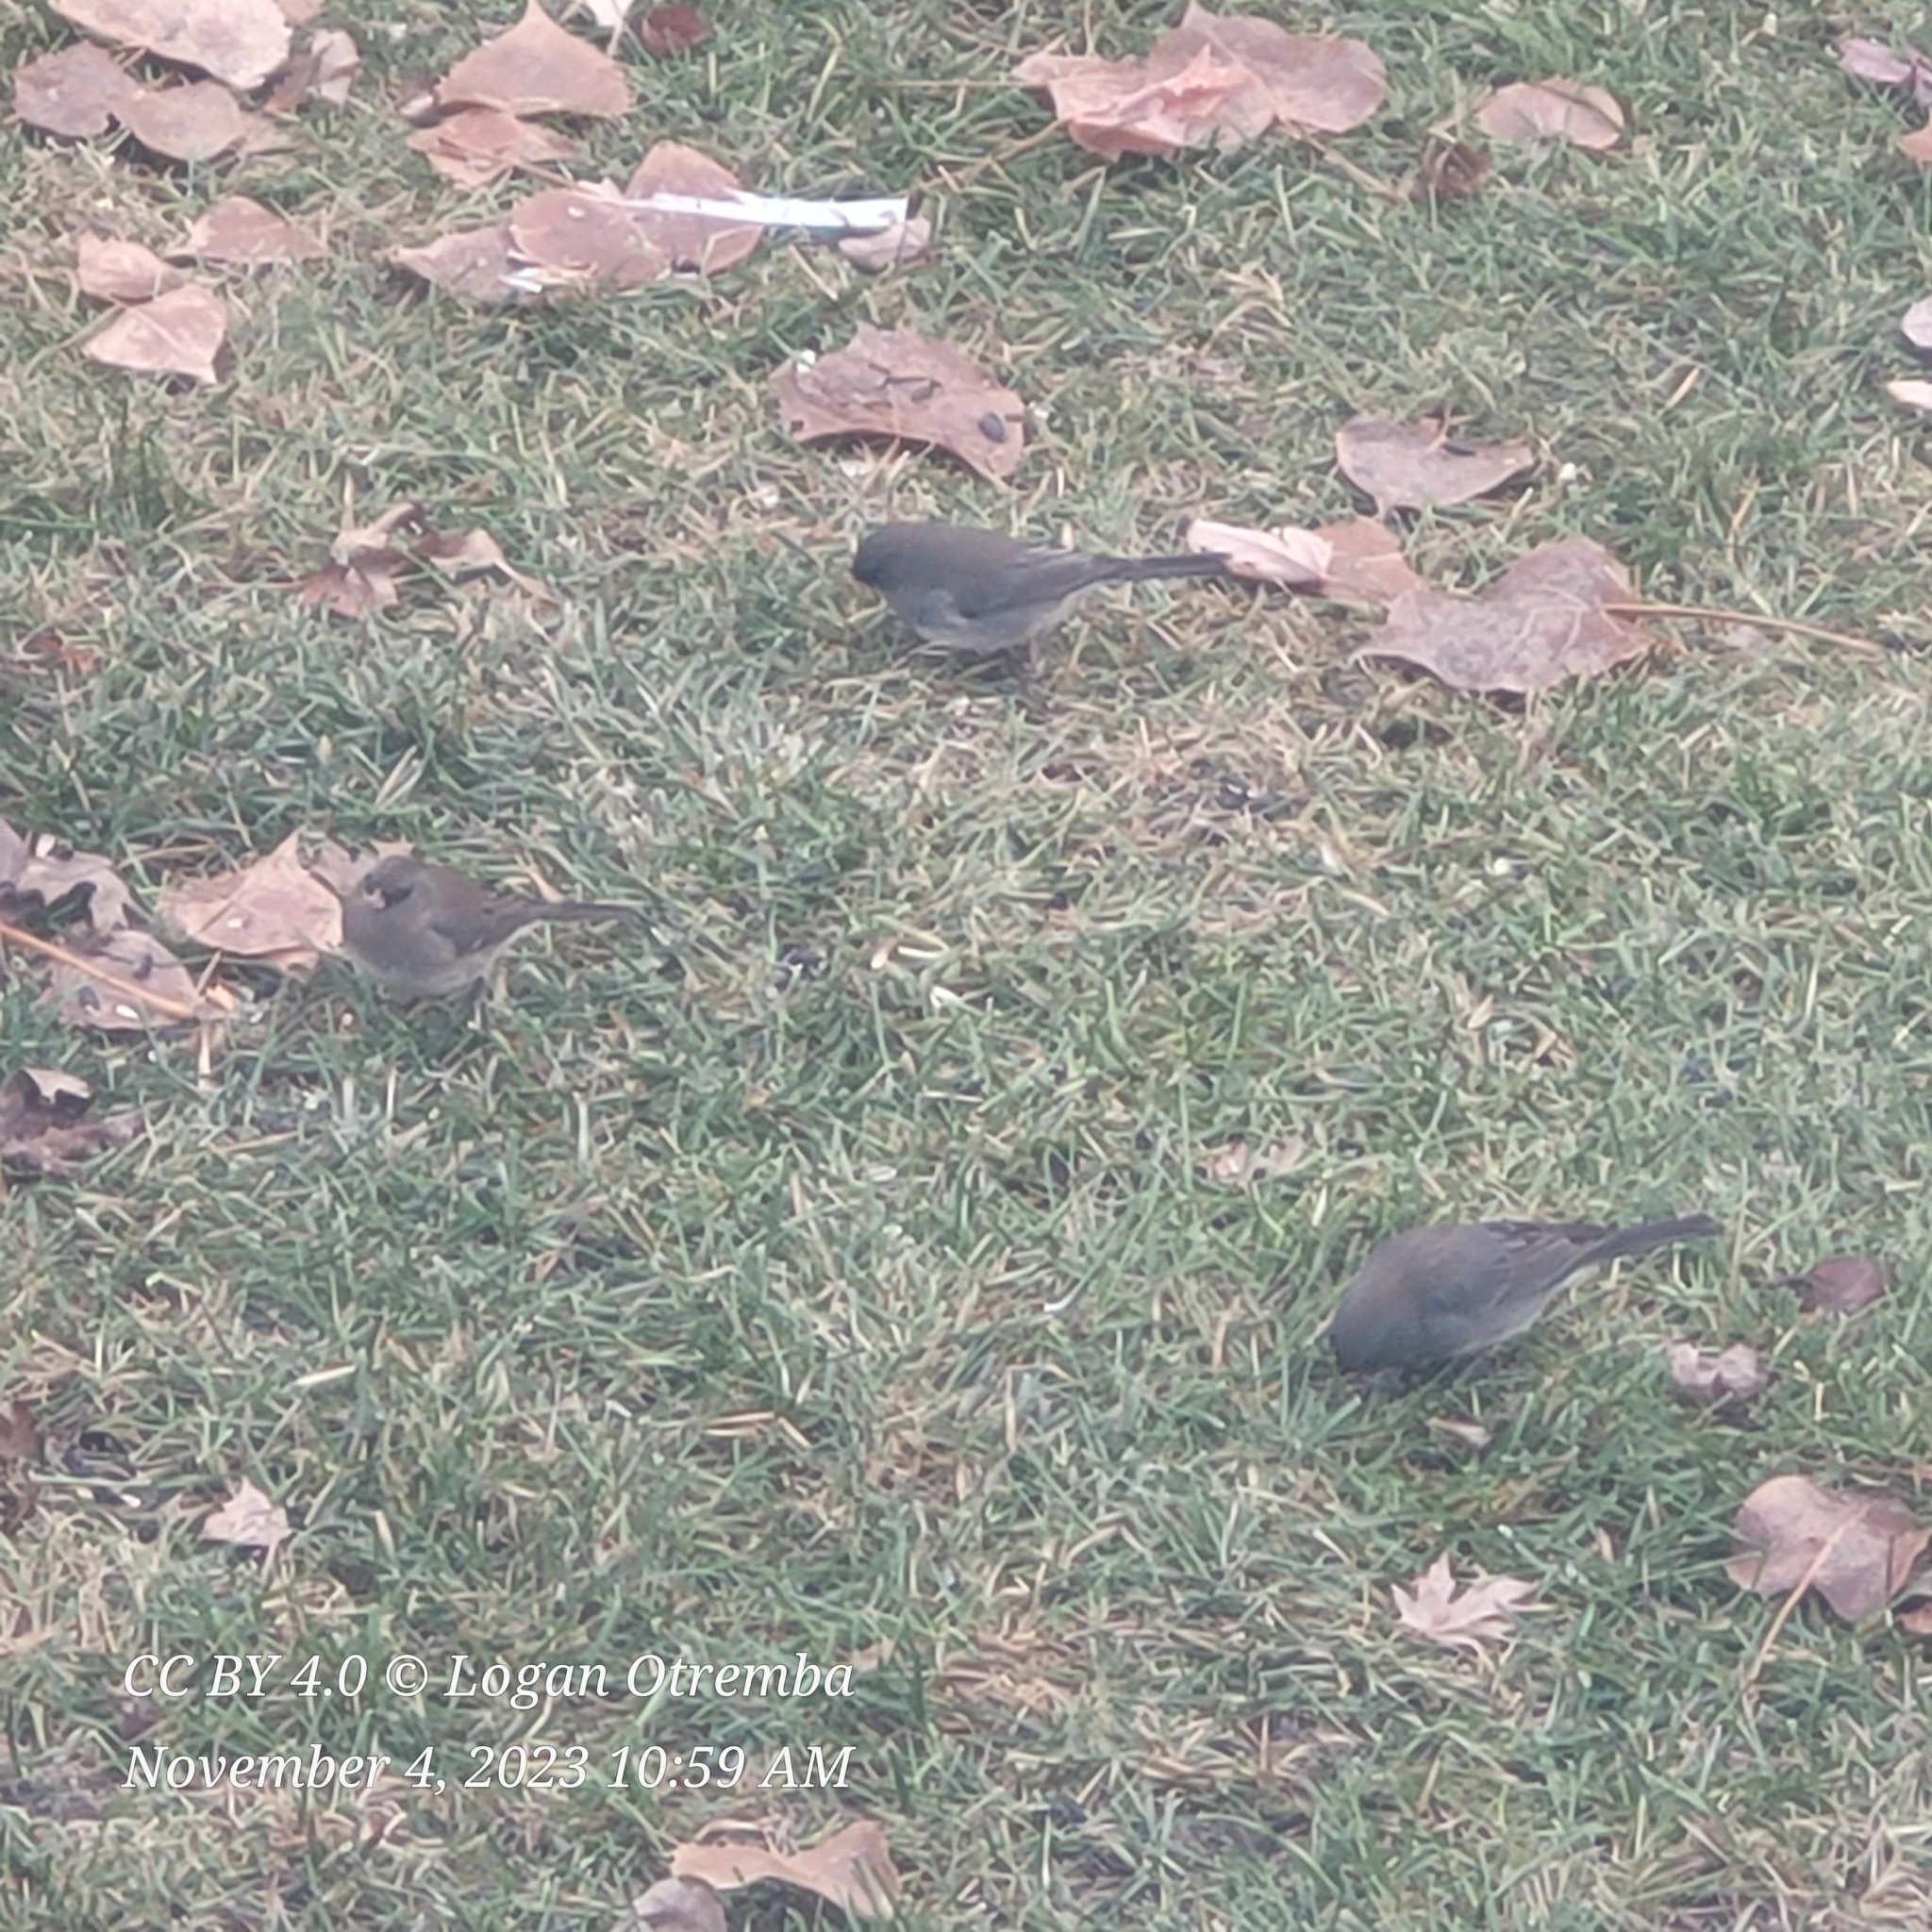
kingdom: Animalia
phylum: Chordata
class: Aves
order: Passeriformes
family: Passerellidae
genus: Junco
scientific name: Junco hyemalis
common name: Dark-eyed junco
